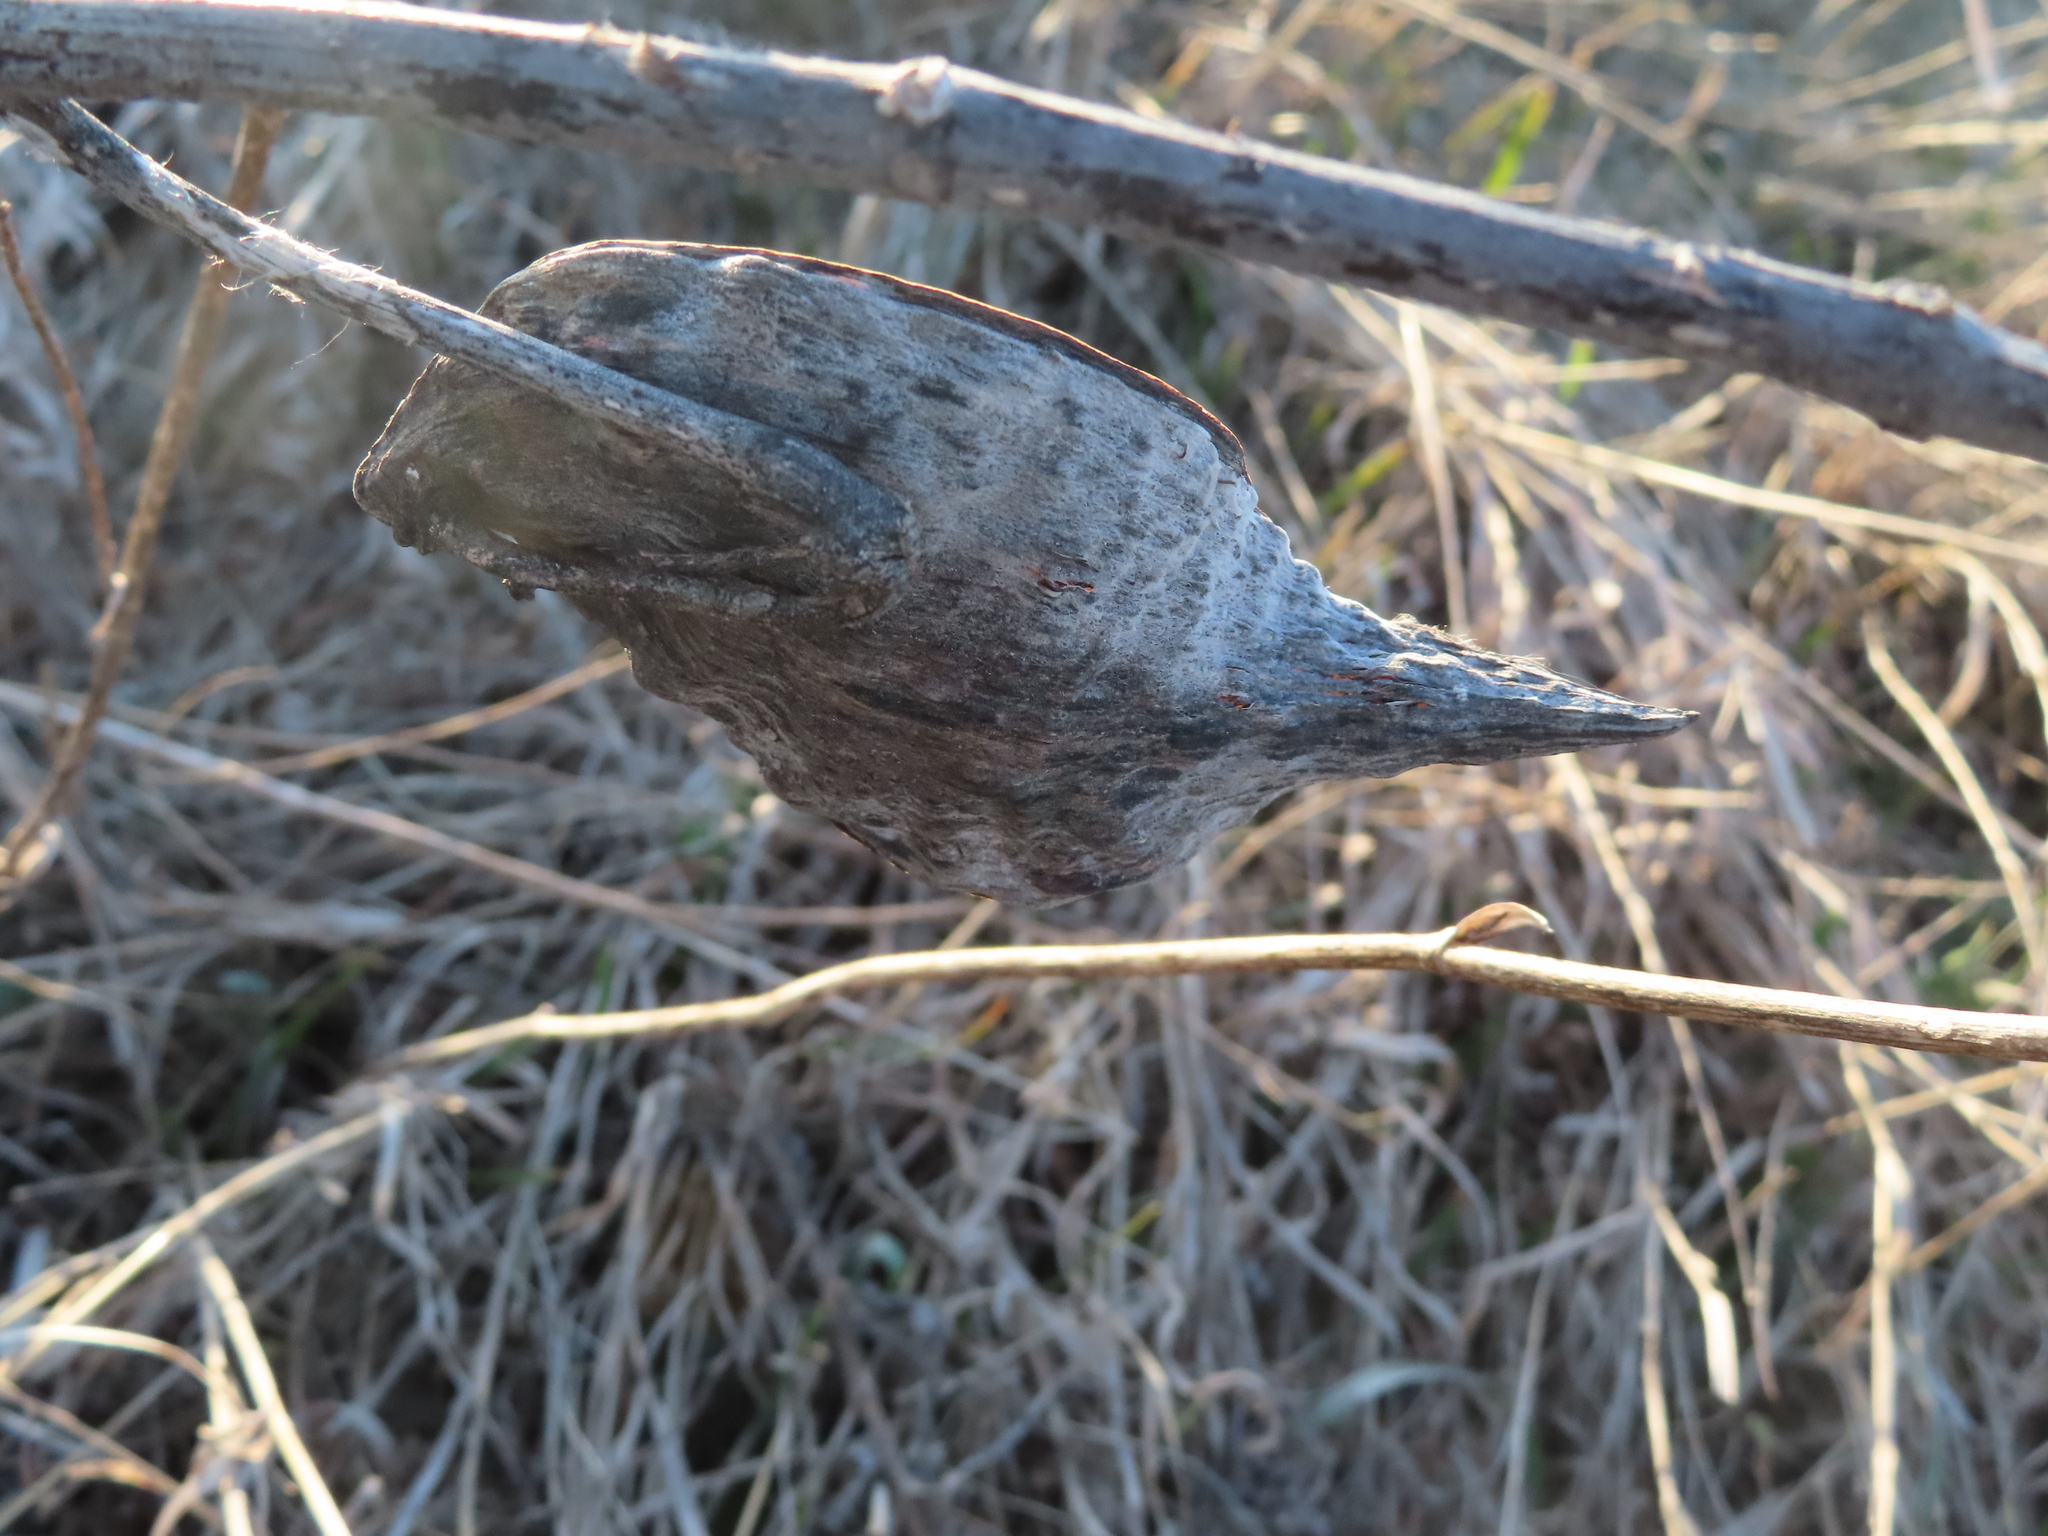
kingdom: Plantae
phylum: Tracheophyta
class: Magnoliopsida
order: Gentianales
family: Apocynaceae
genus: Asclepias
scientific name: Asclepias syriaca
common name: Common milkweed
